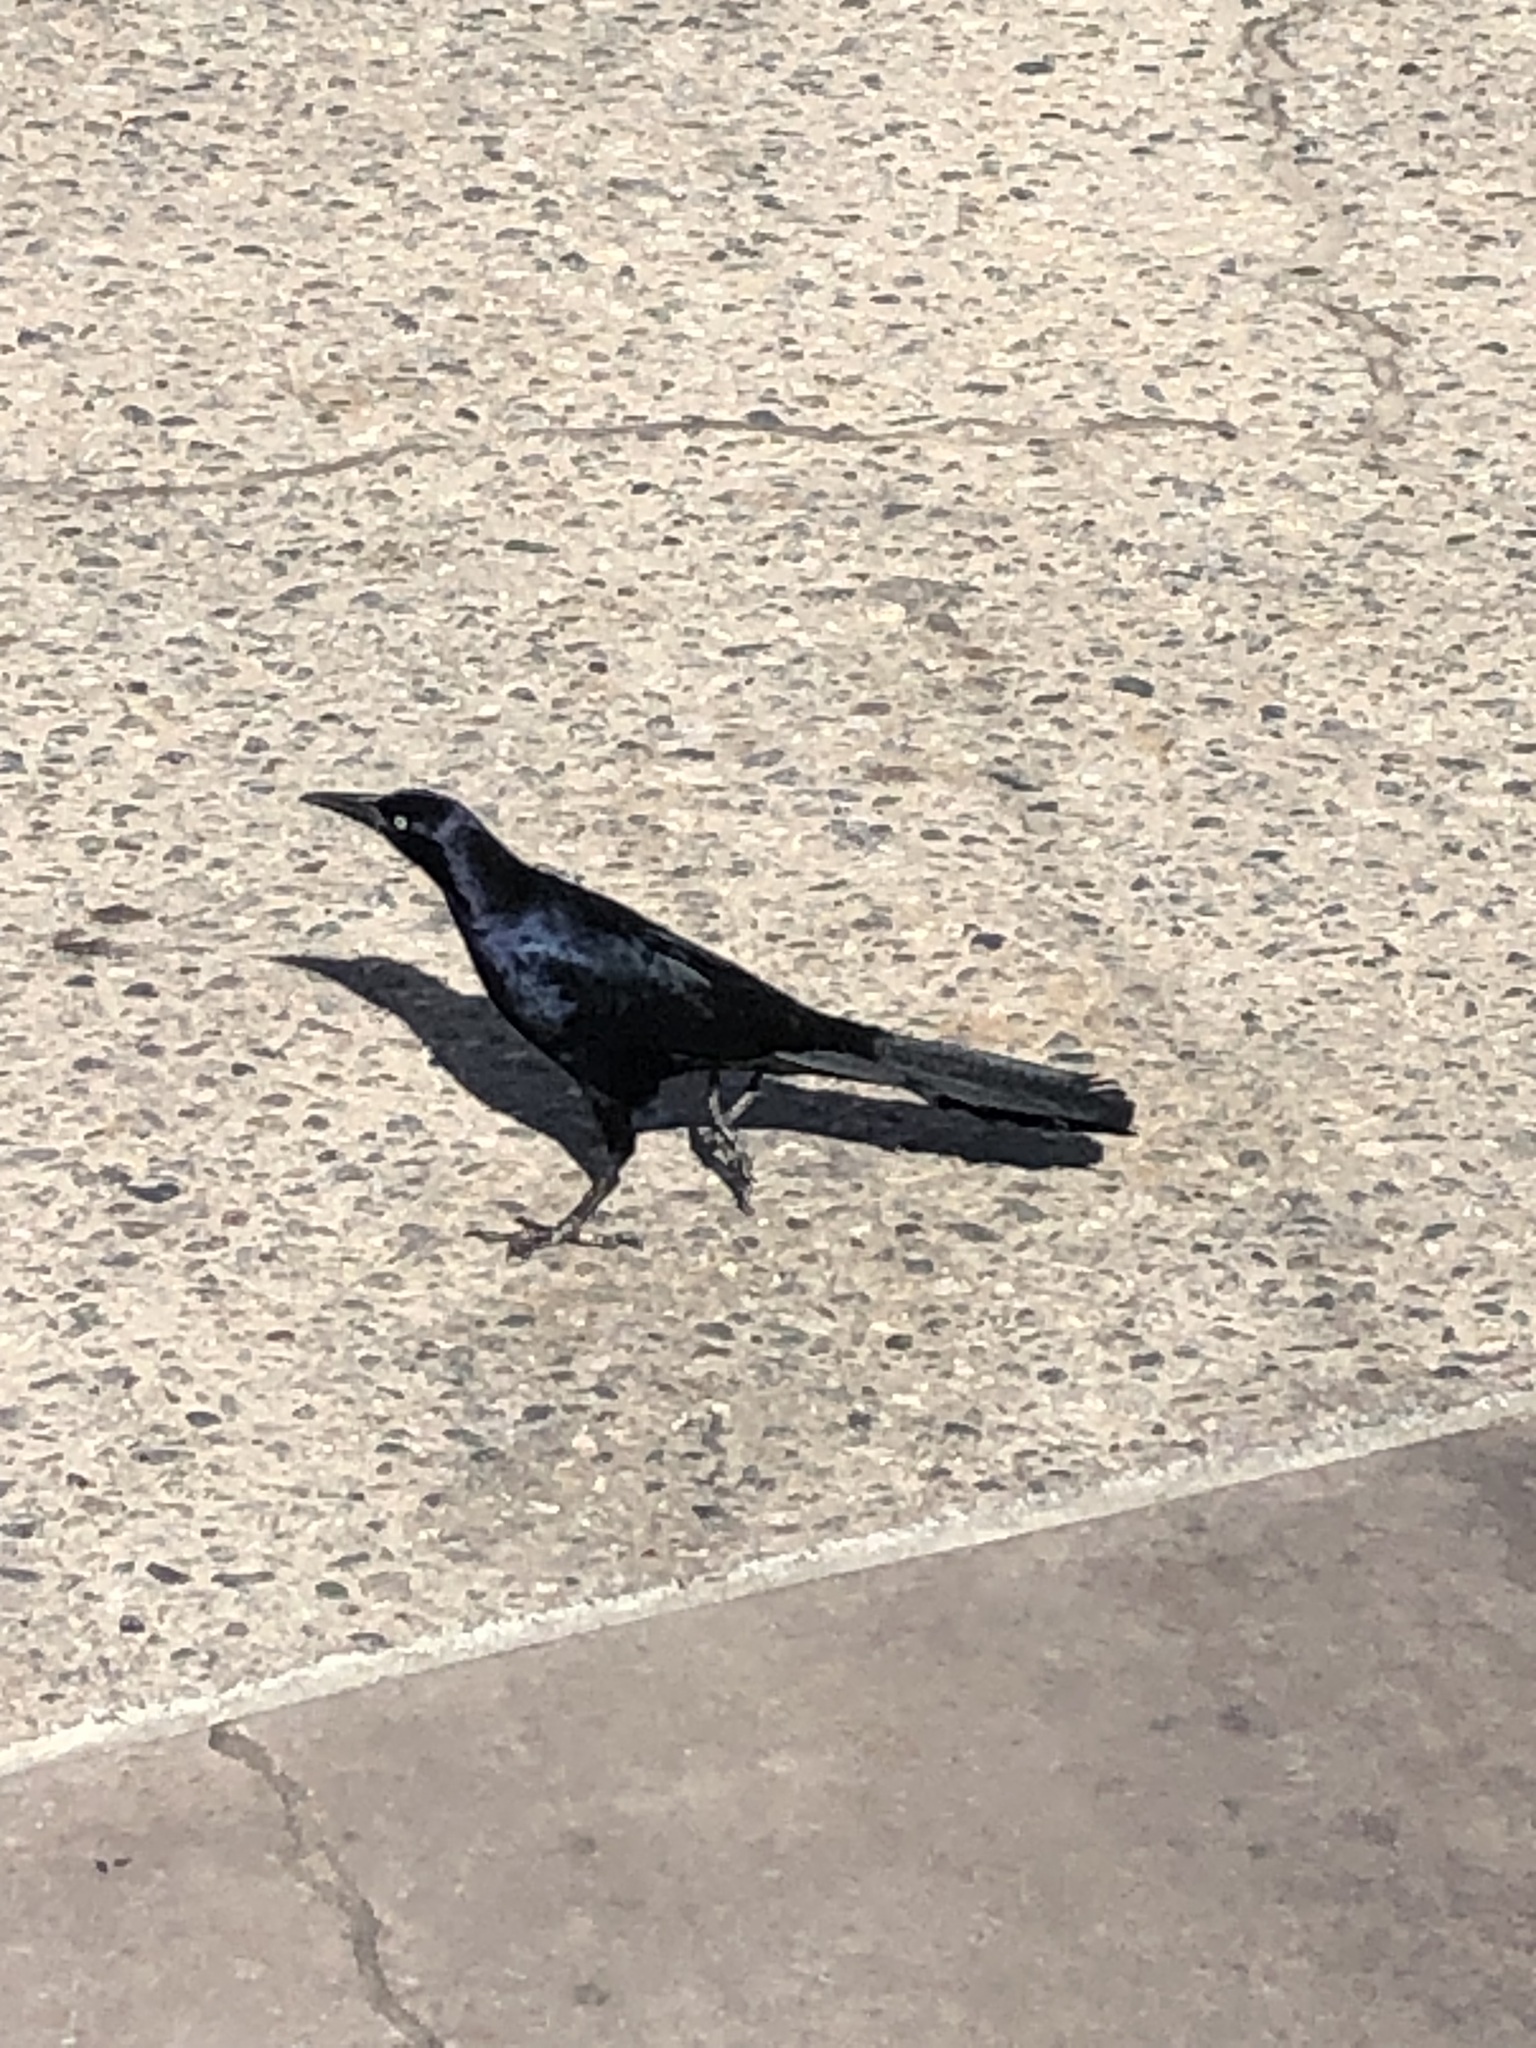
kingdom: Animalia
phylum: Chordata
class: Aves
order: Passeriformes
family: Icteridae
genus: Quiscalus
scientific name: Quiscalus mexicanus
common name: Great-tailed grackle
